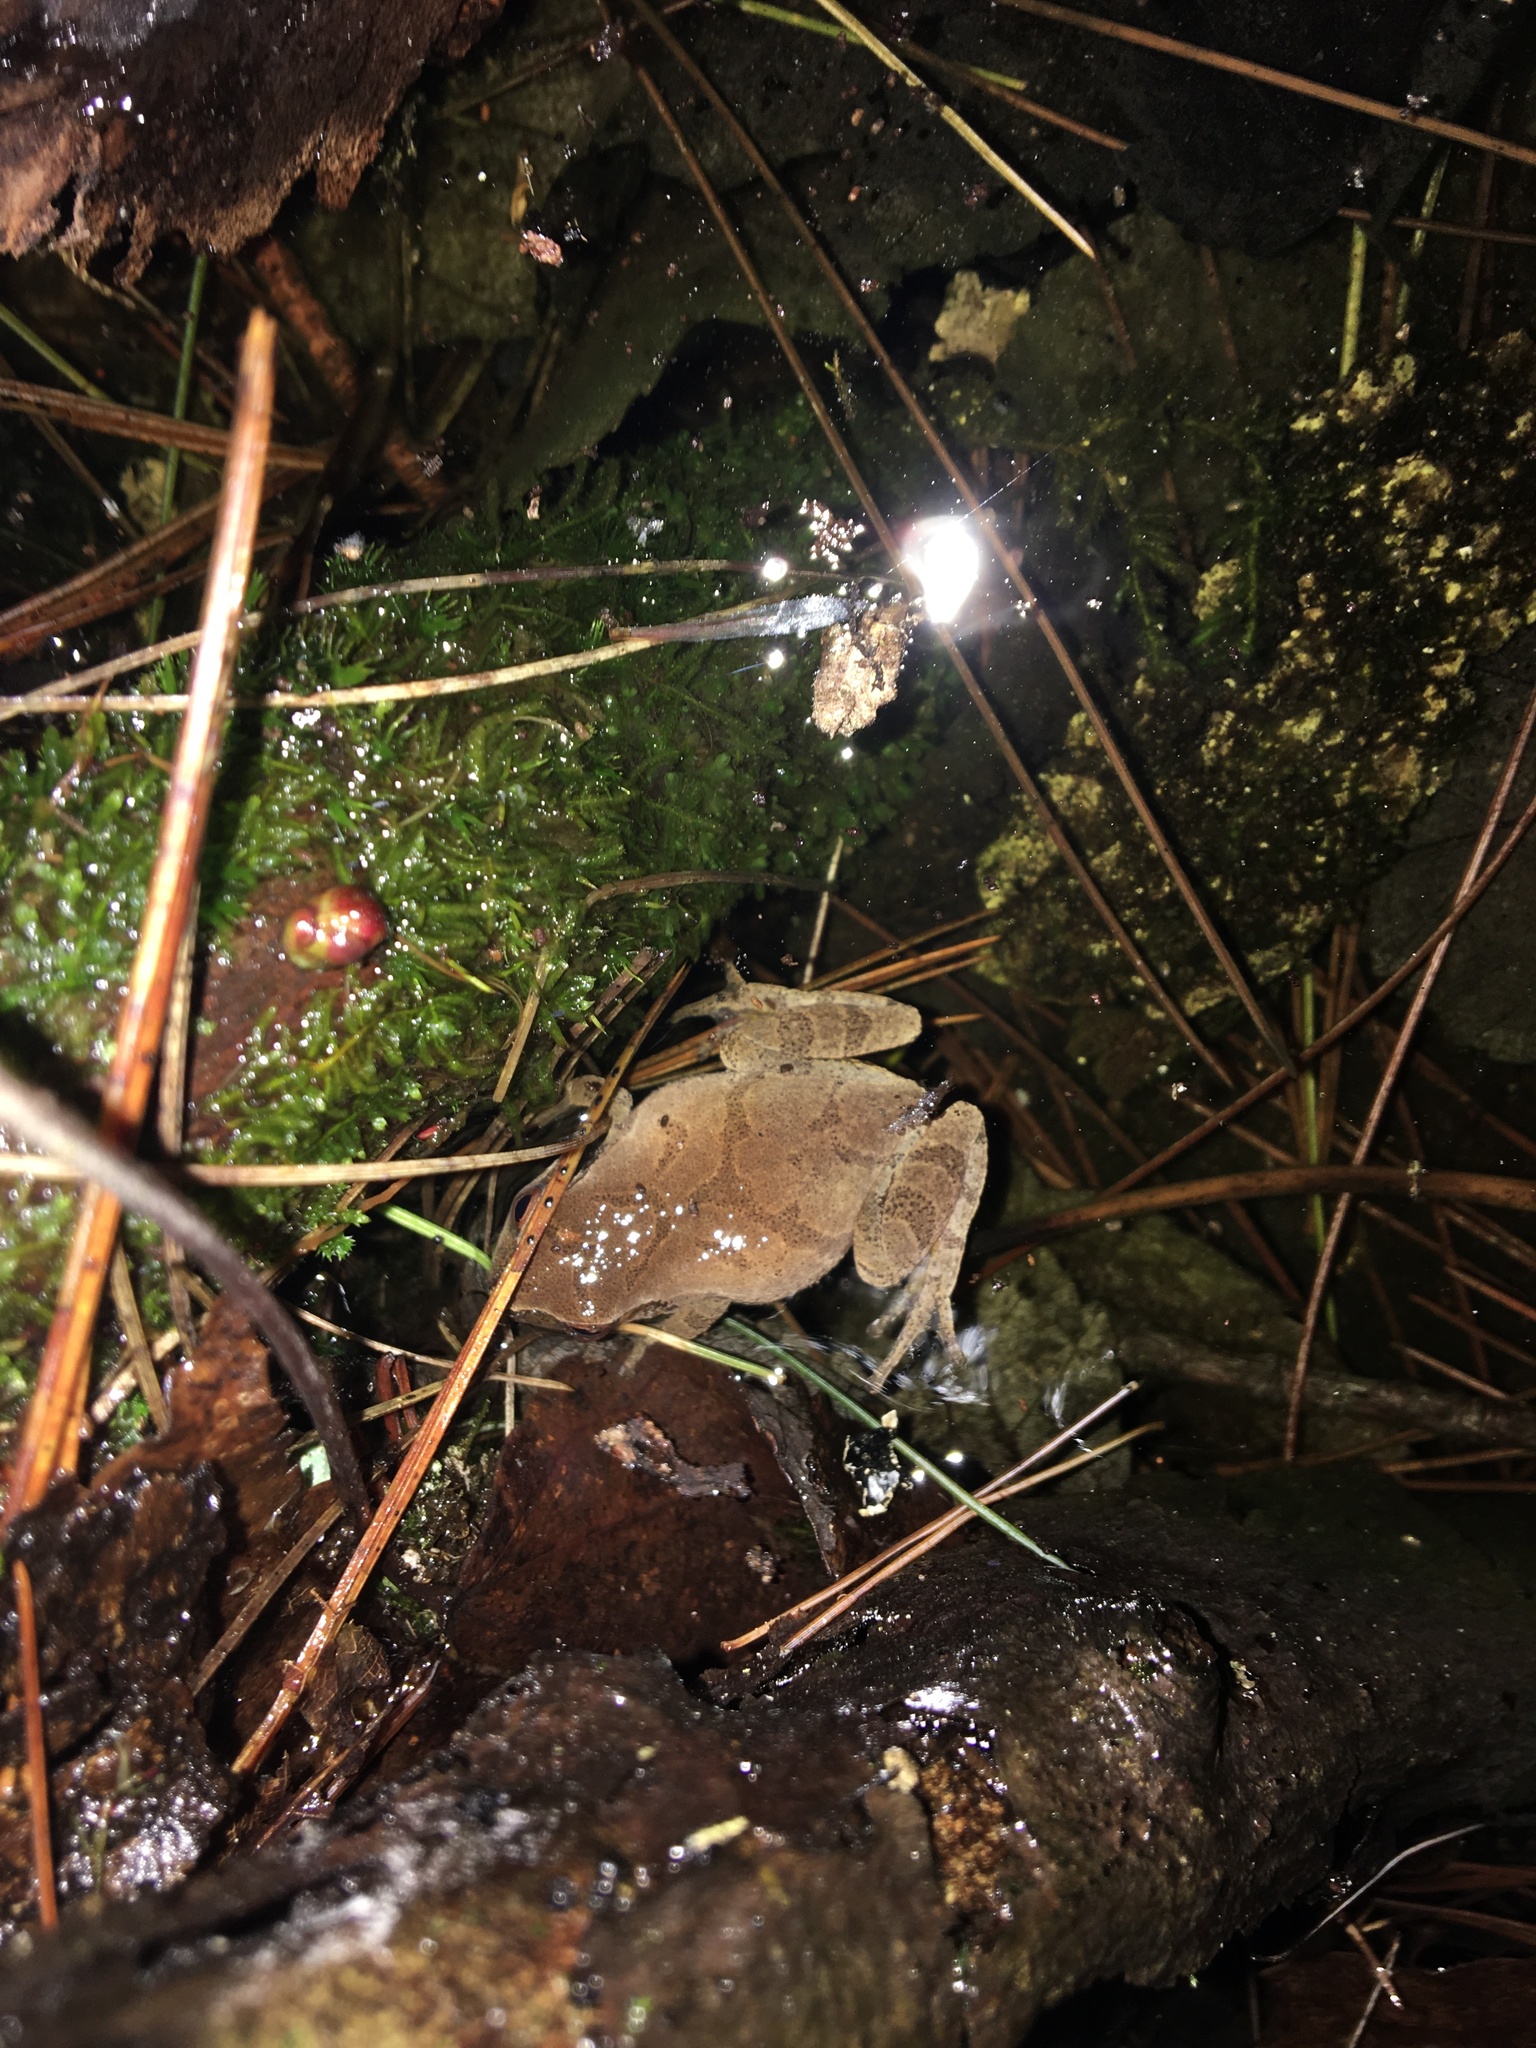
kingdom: Animalia
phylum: Chordata
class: Amphibia
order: Anura
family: Hylidae
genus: Pseudacris
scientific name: Pseudacris crucifer
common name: Spring peeper
